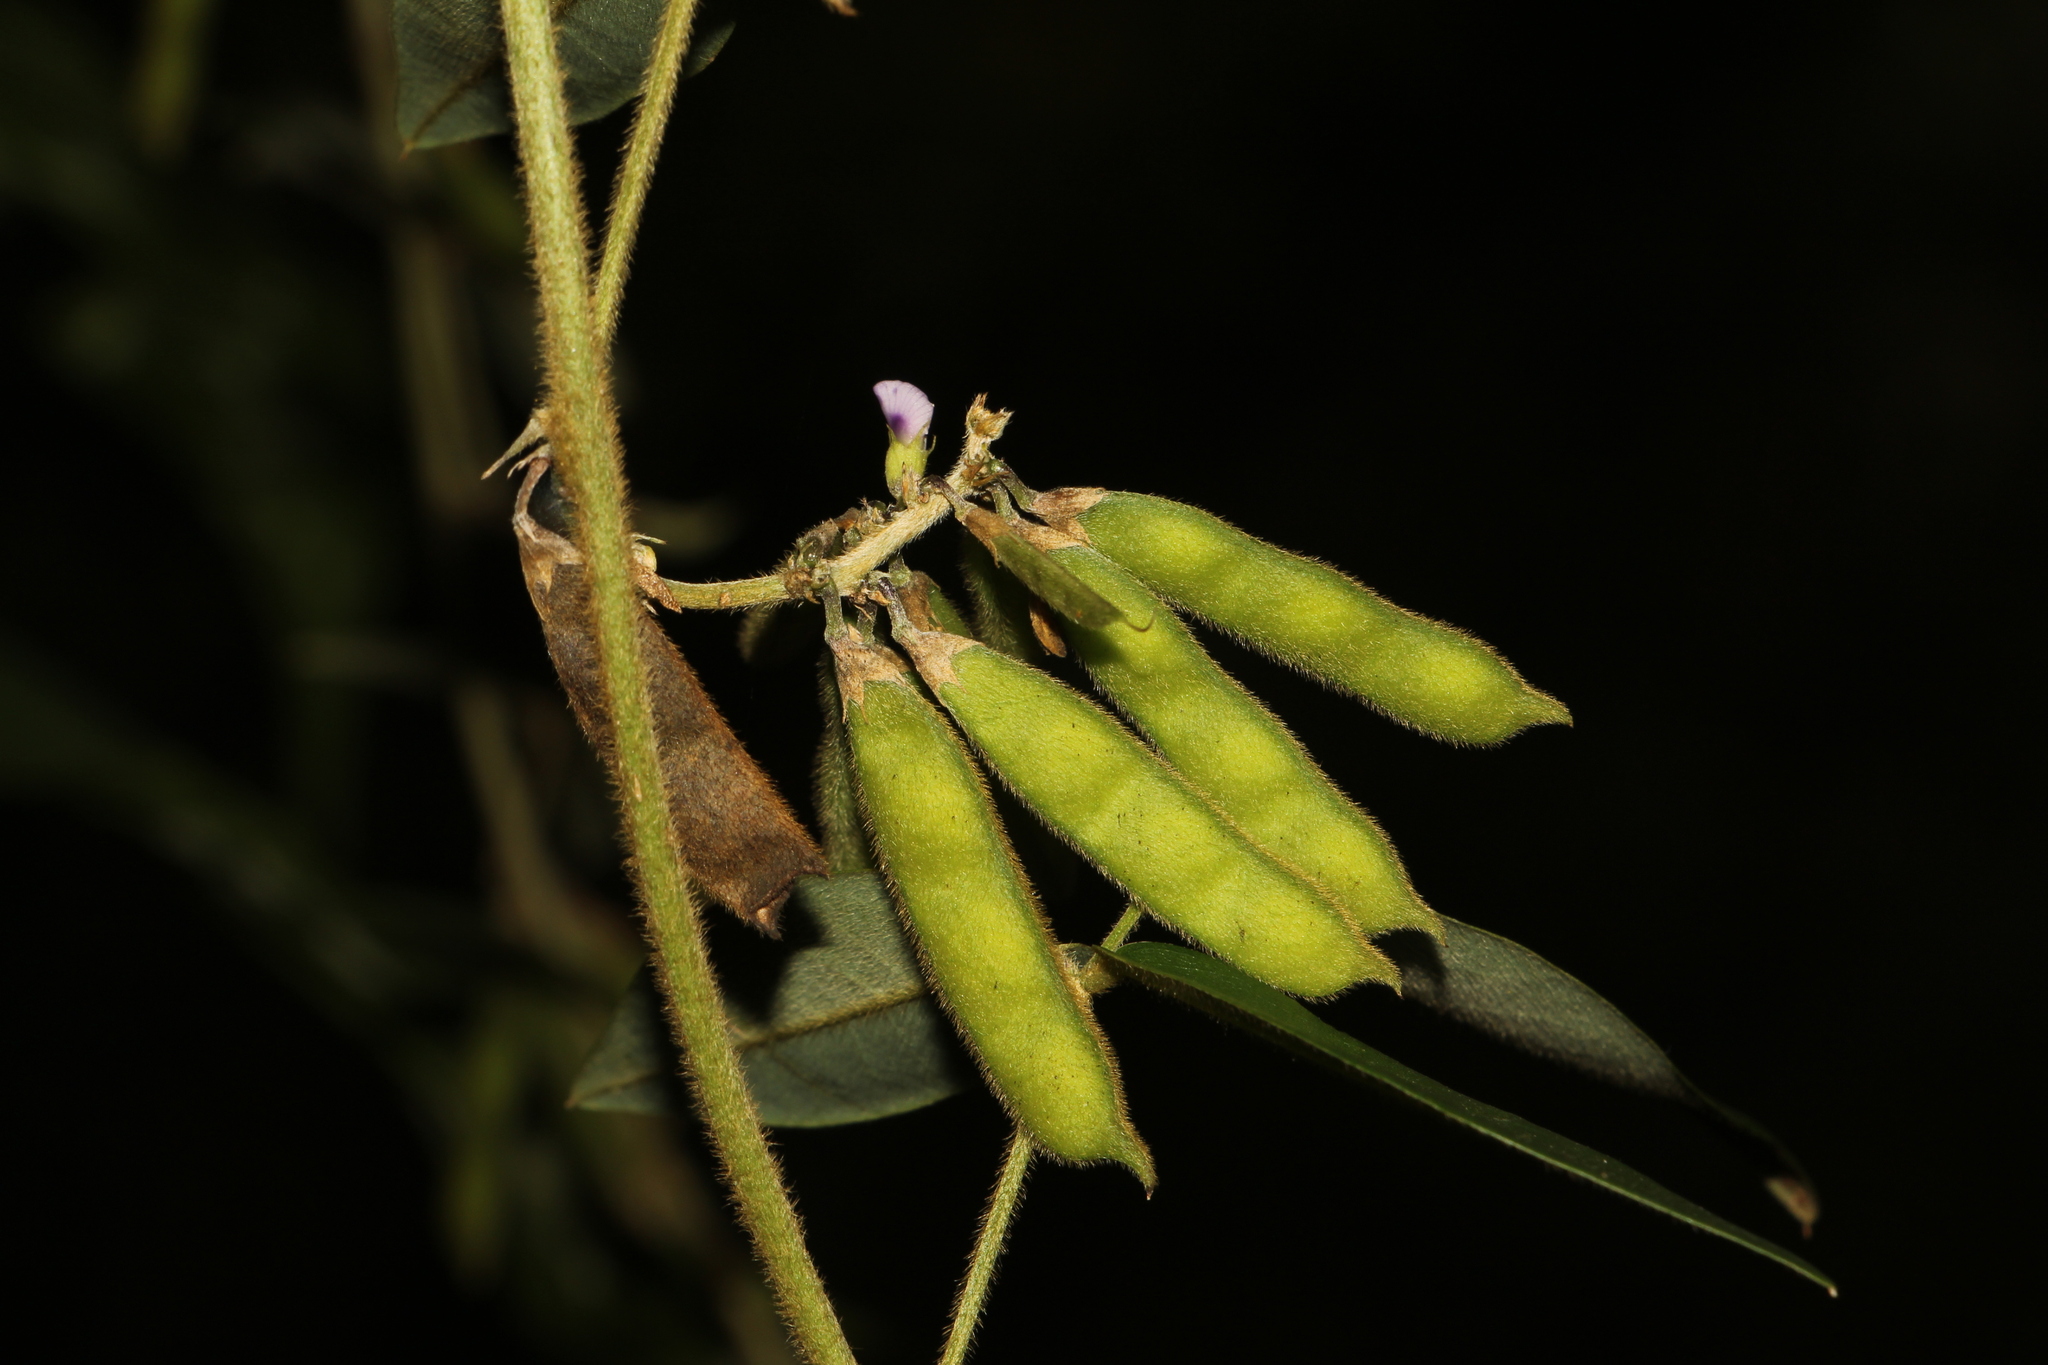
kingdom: Plantae
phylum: Tracheophyta
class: Magnoliopsida
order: Fabales
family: Fabaceae
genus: Calopogonium
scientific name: Calopogonium galactioides
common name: Legume
